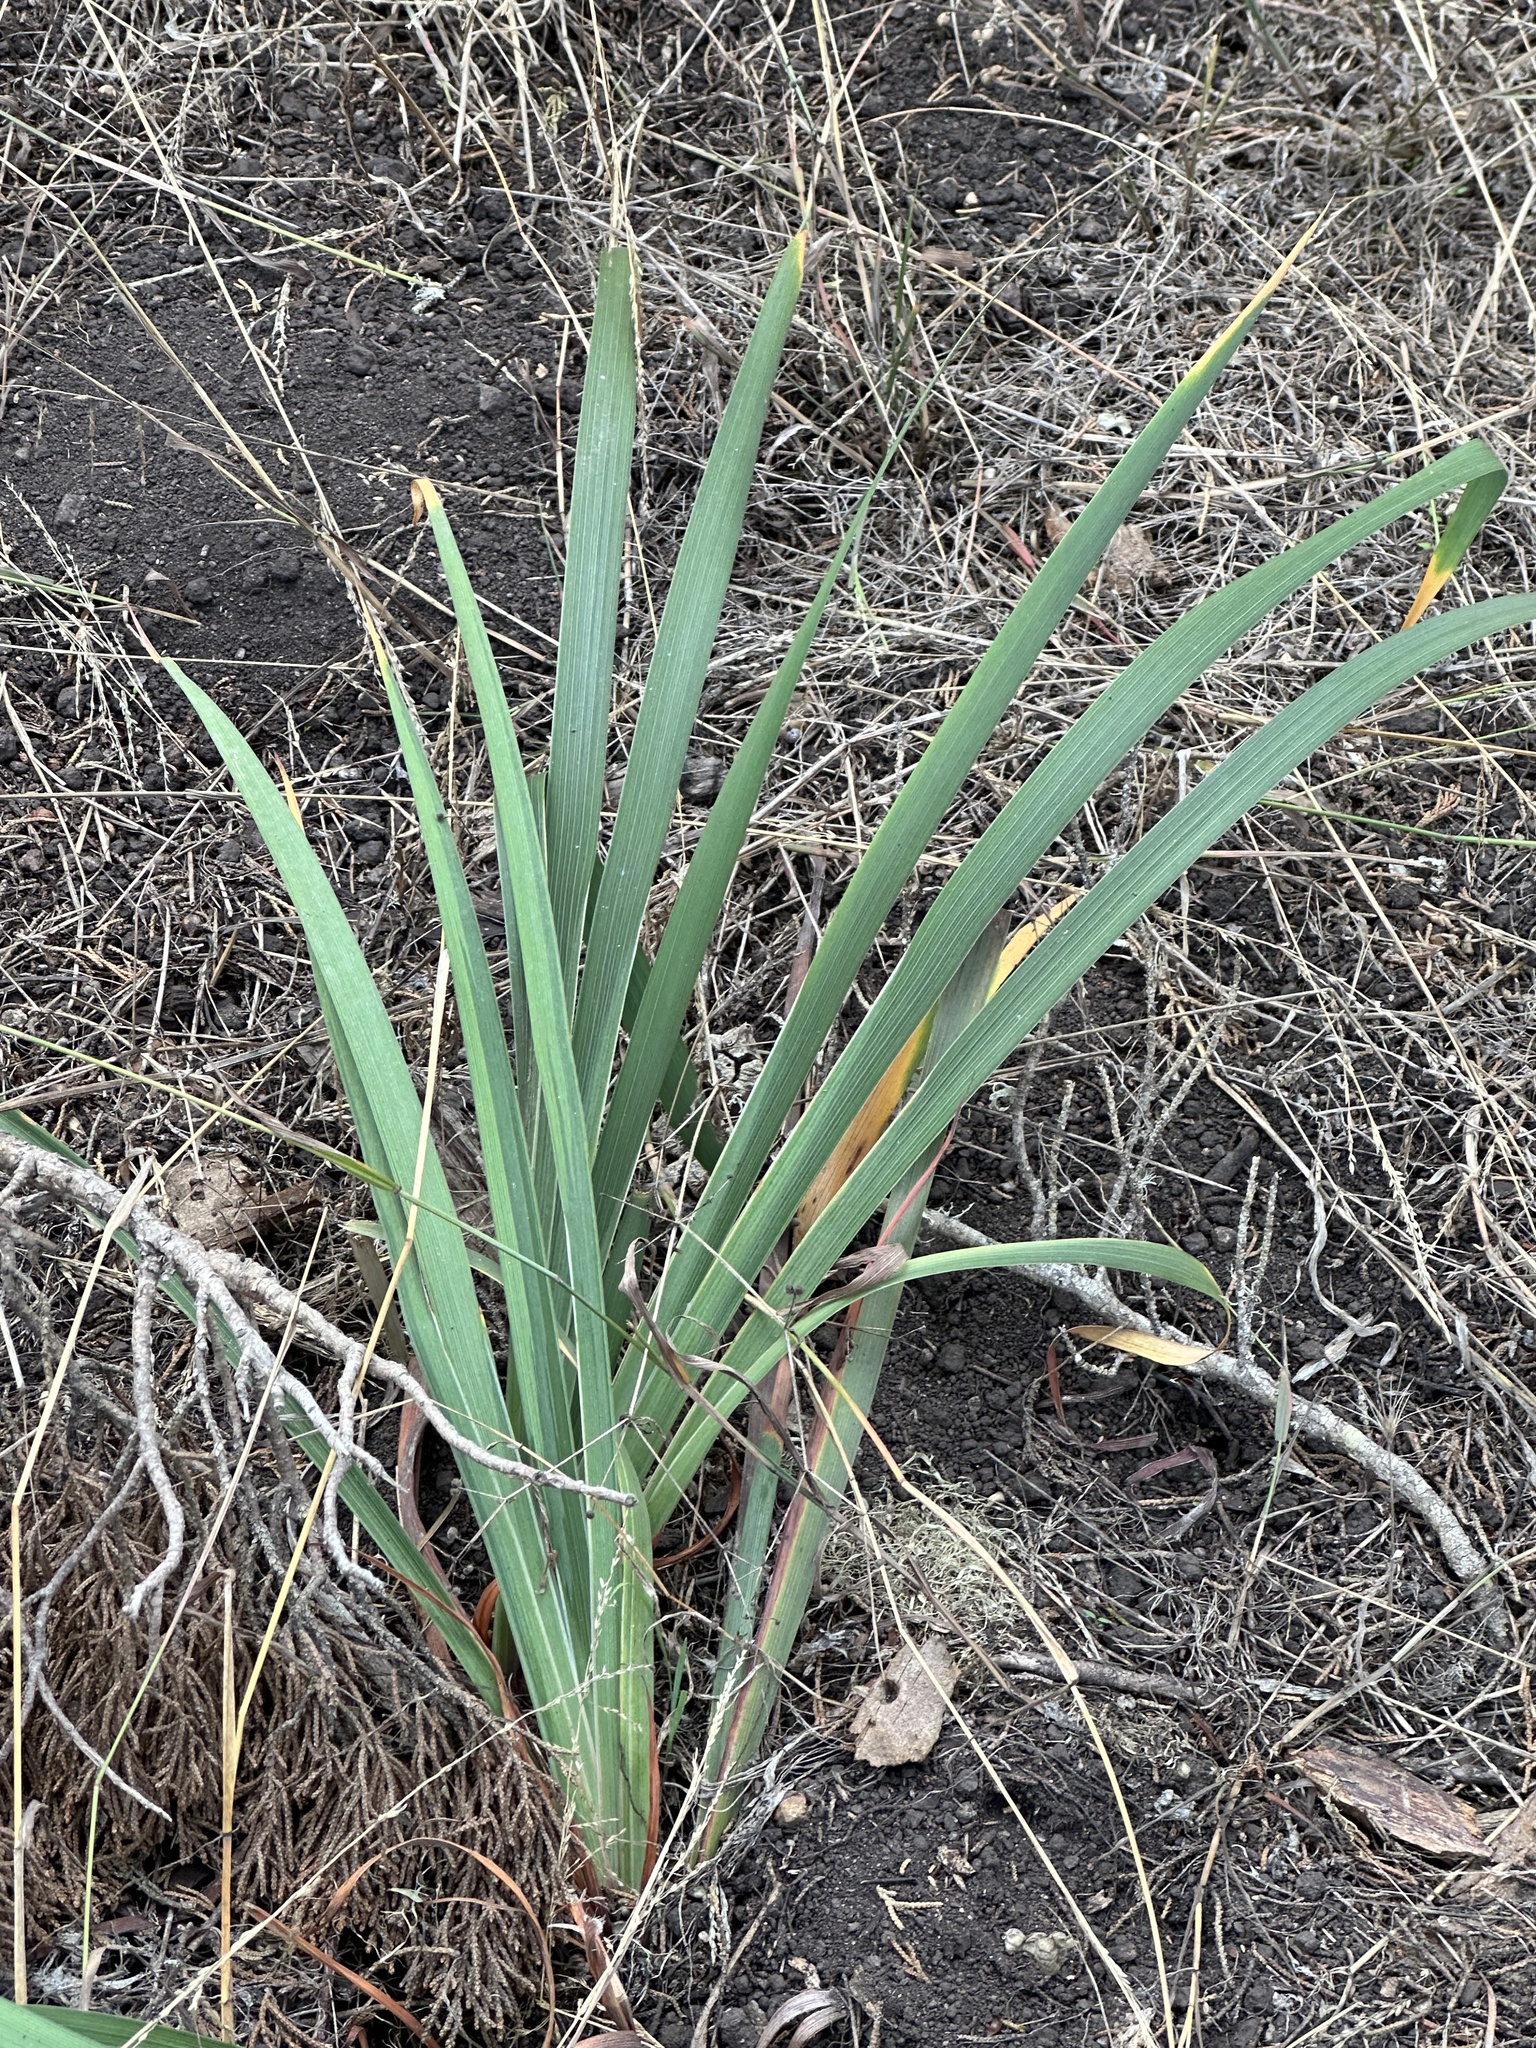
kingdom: Plantae
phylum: Tracheophyta
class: Liliopsida
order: Asparagales
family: Iridaceae
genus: Iris
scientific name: Iris douglasiana
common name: Marin iris
